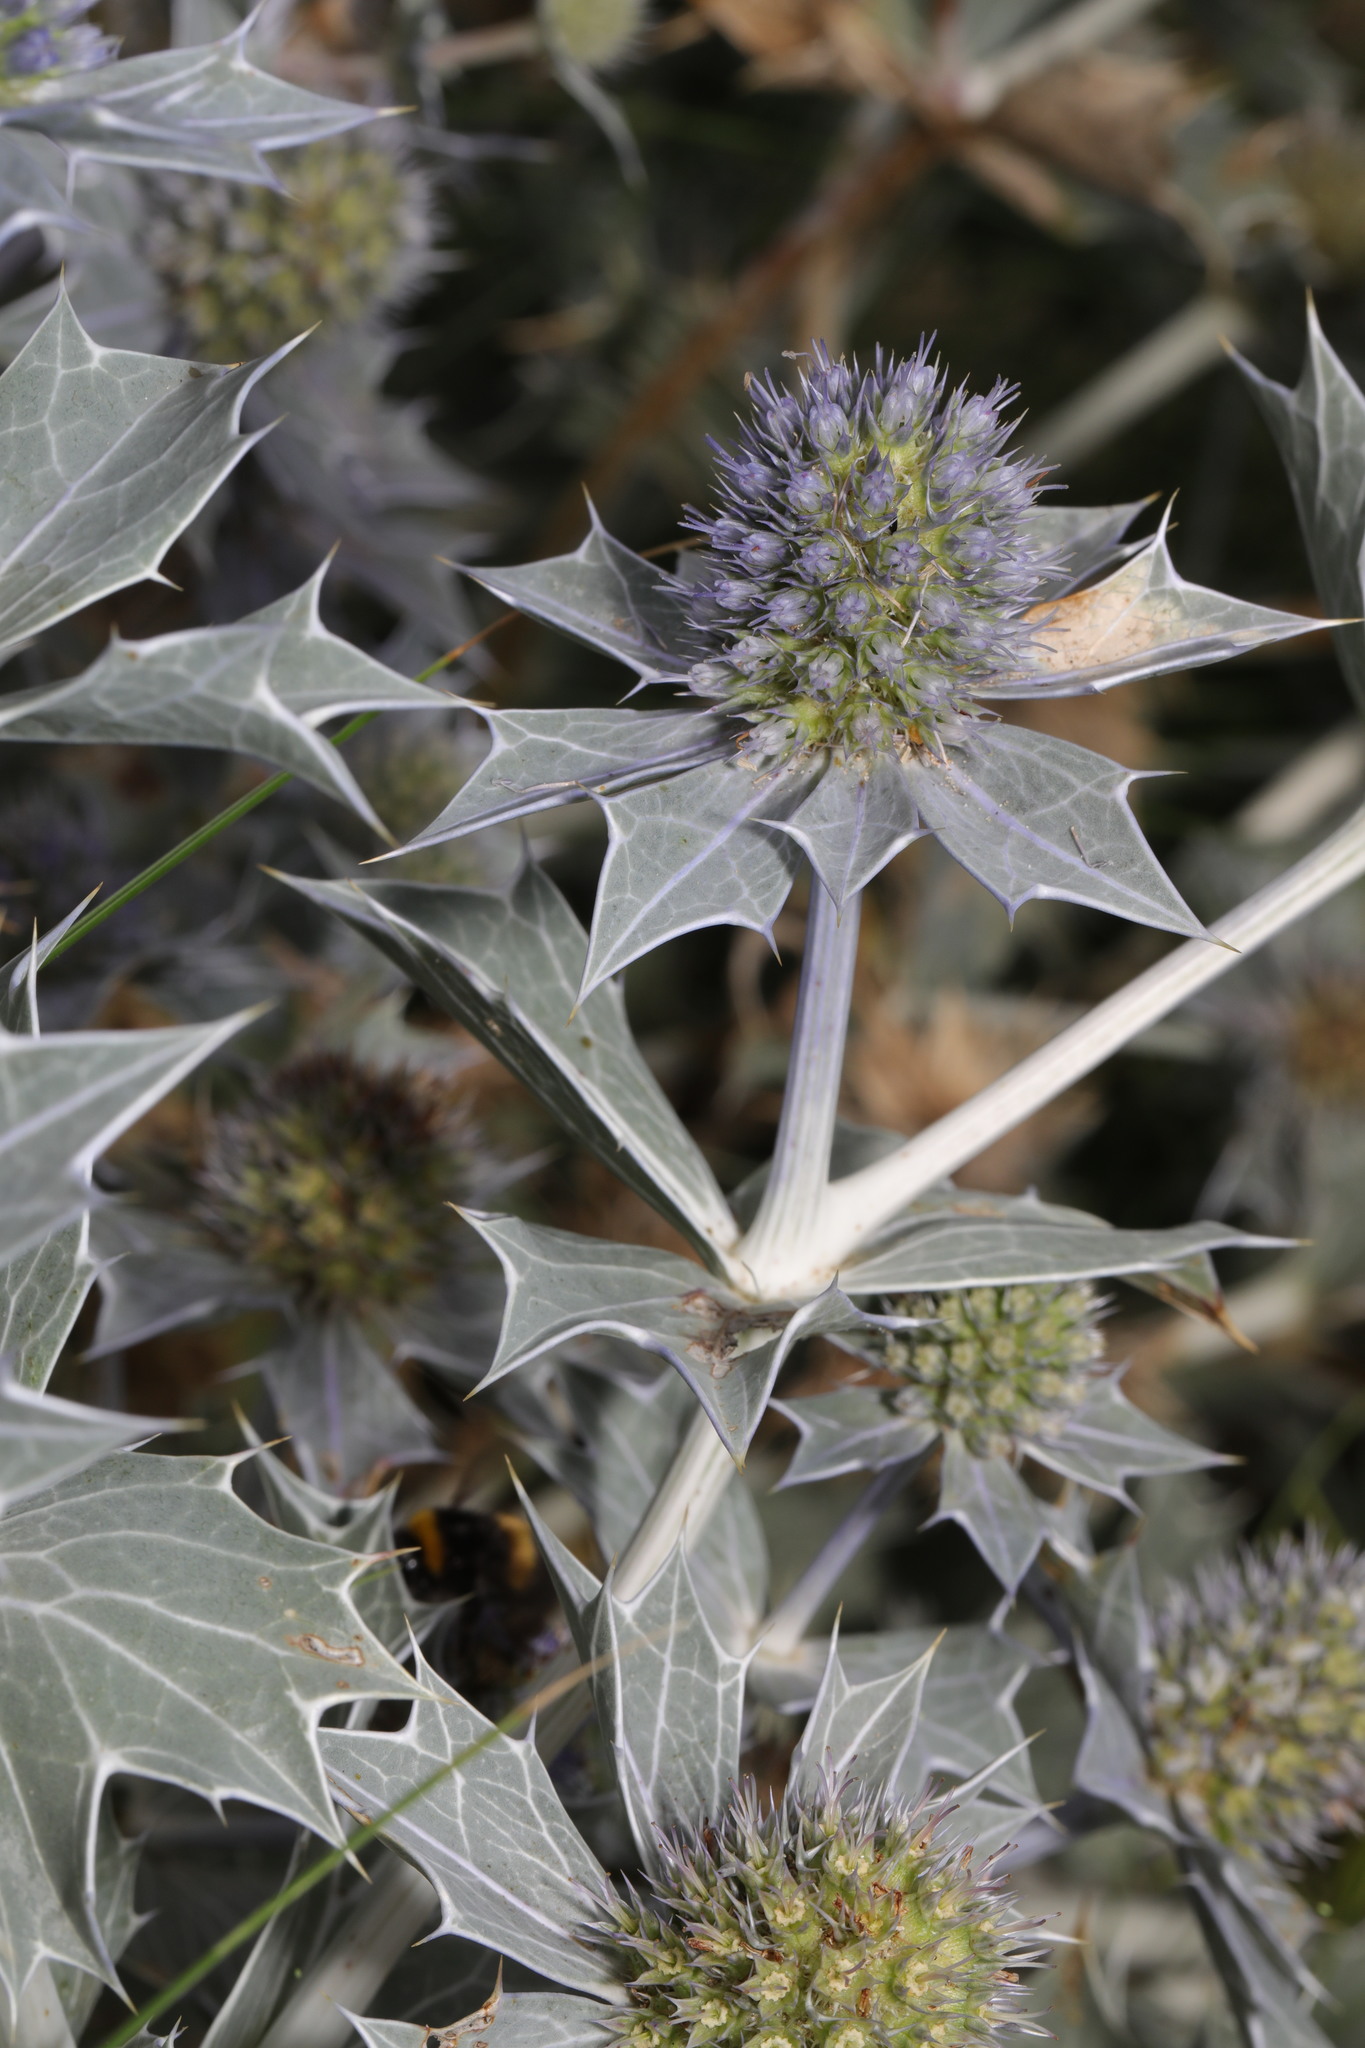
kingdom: Plantae
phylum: Tracheophyta
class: Magnoliopsida
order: Apiales
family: Apiaceae
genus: Eryngium
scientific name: Eryngium maritimum
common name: Sea-holly
